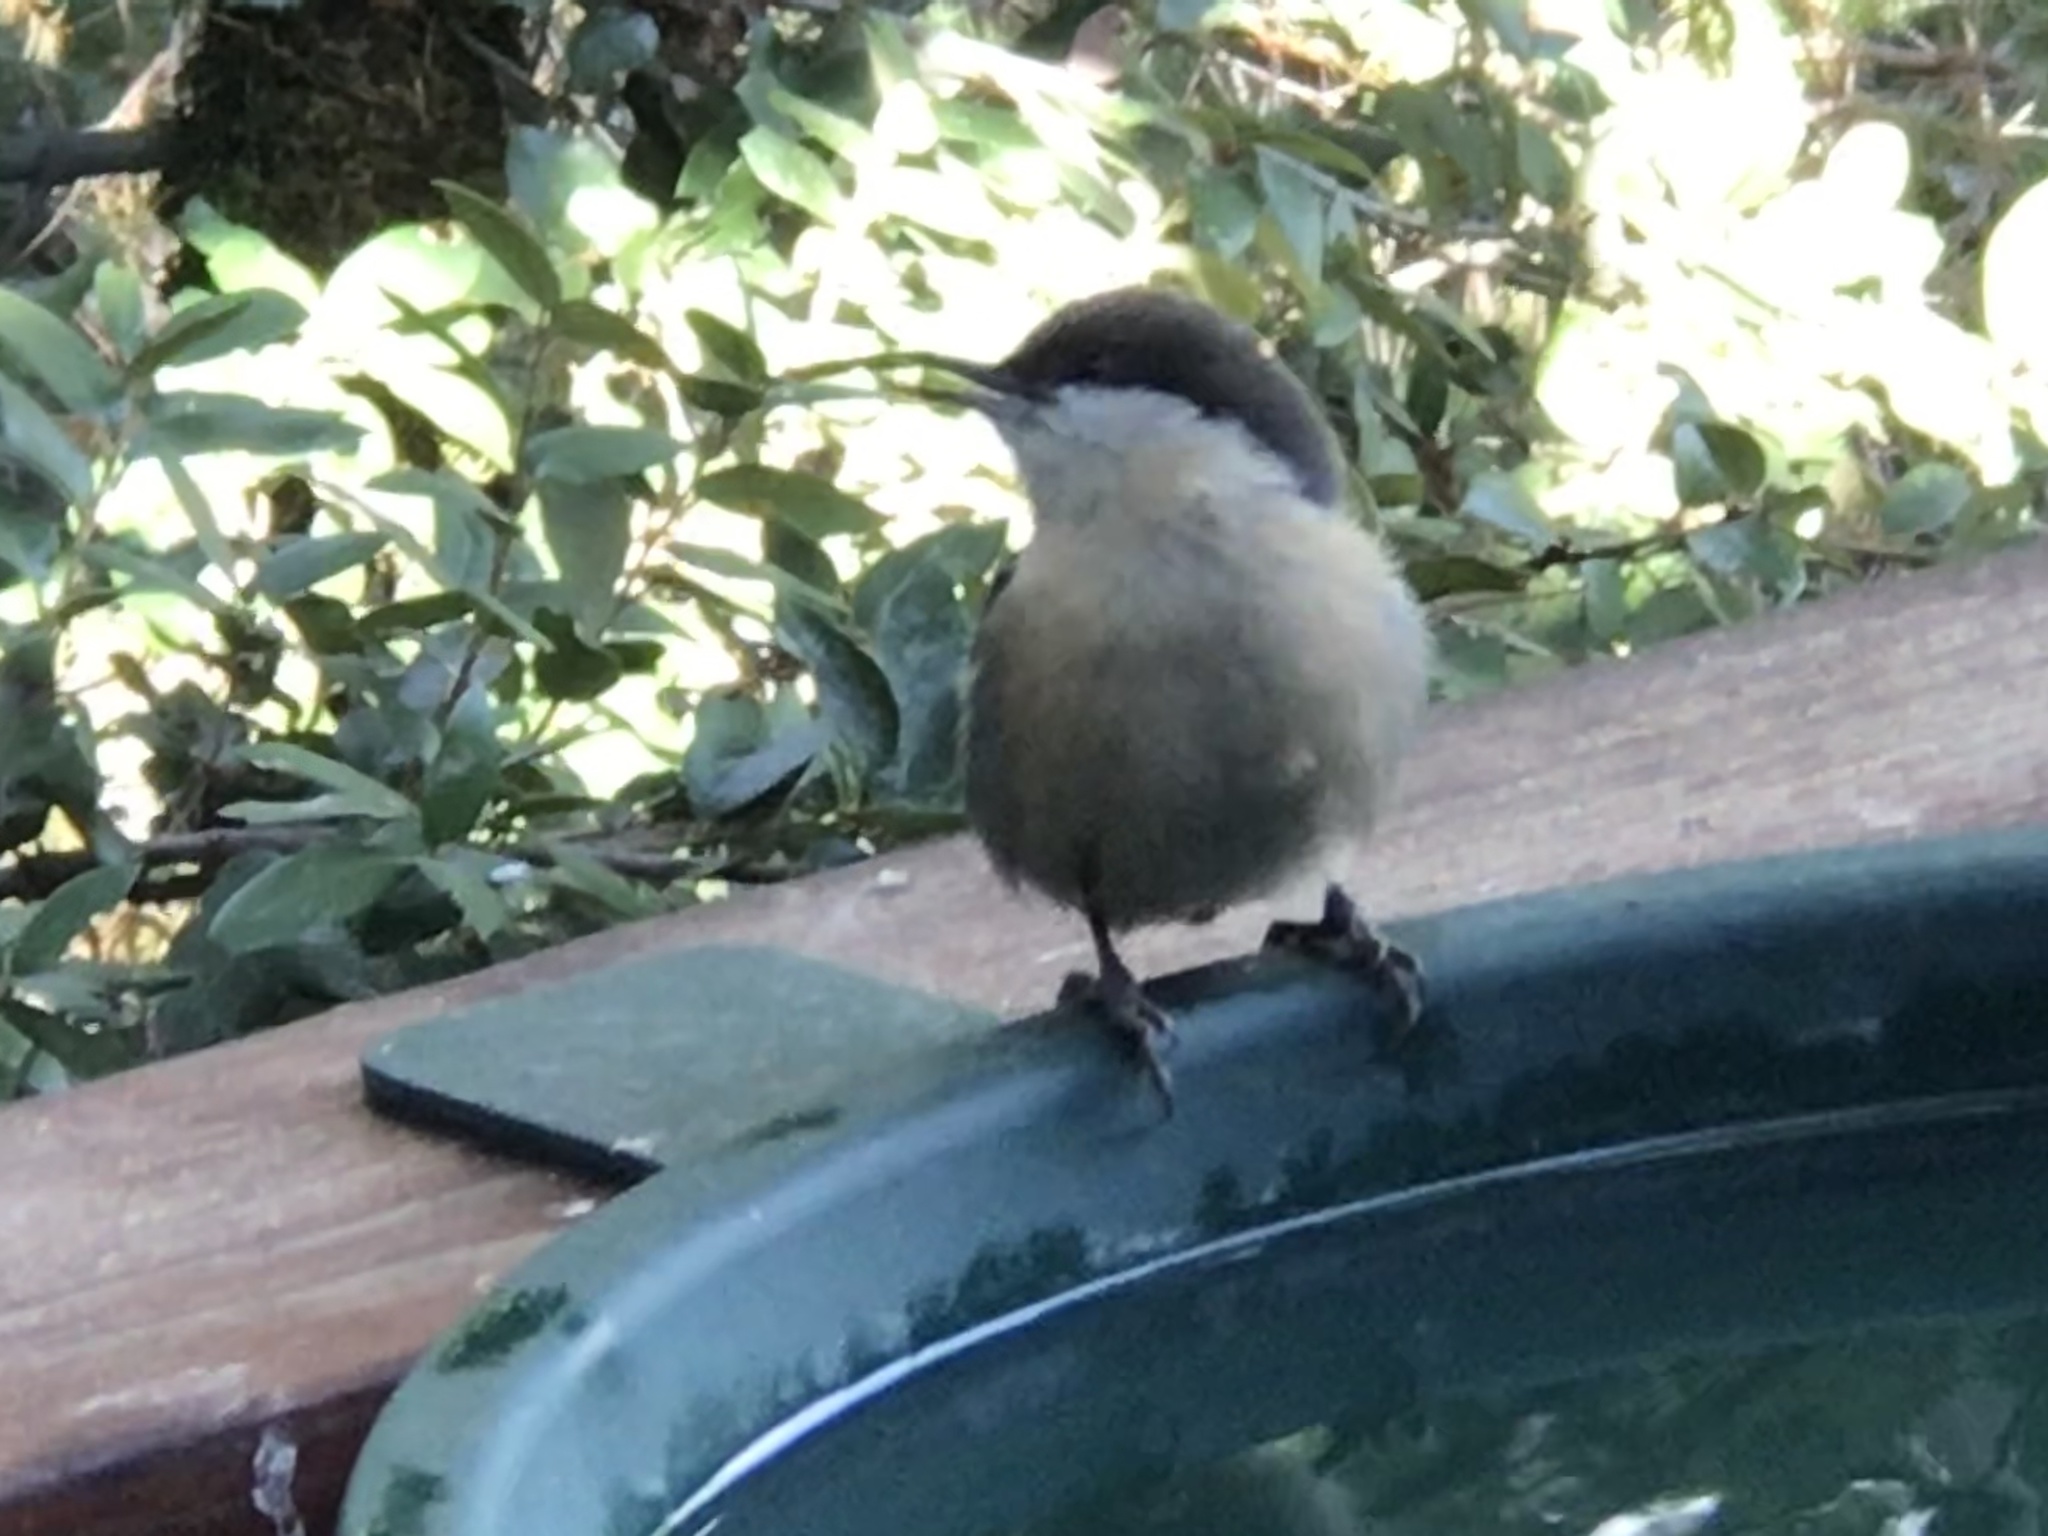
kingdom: Animalia
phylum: Chordata
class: Aves
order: Passeriformes
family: Sittidae
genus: Sitta
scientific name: Sitta pygmaea
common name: Pygmy nuthatch
